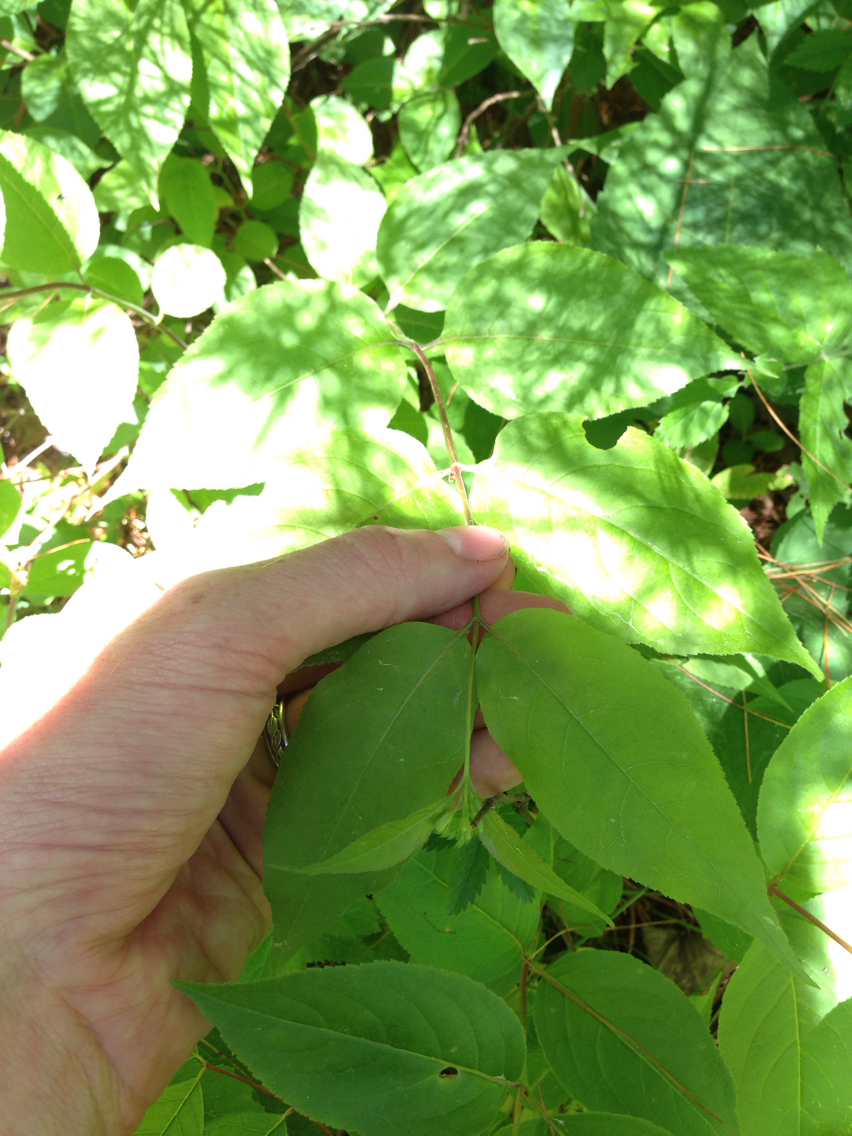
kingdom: Plantae
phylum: Tracheophyta
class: Magnoliopsida
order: Dipsacales
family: Caprifoliaceae
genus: Diervilla
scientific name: Diervilla lonicera
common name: Bush-honeysuckle
